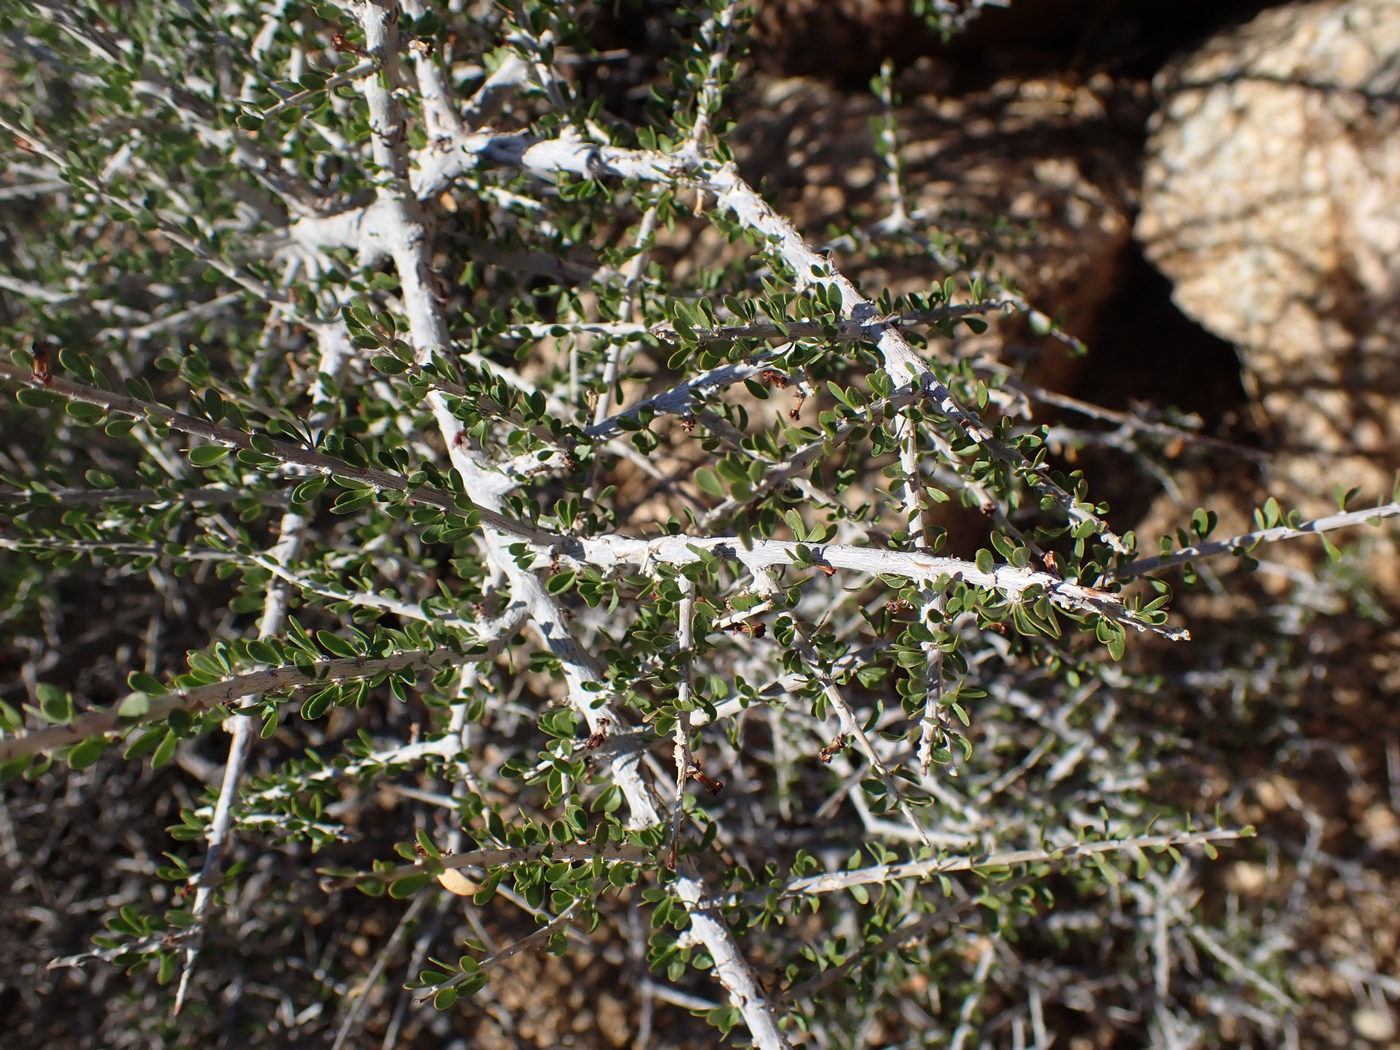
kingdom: Plantae
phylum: Tracheophyta
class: Magnoliopsida
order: Malpighiales
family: Picrodendraceae
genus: Tetracoccus
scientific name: Tetracoccus hallii
